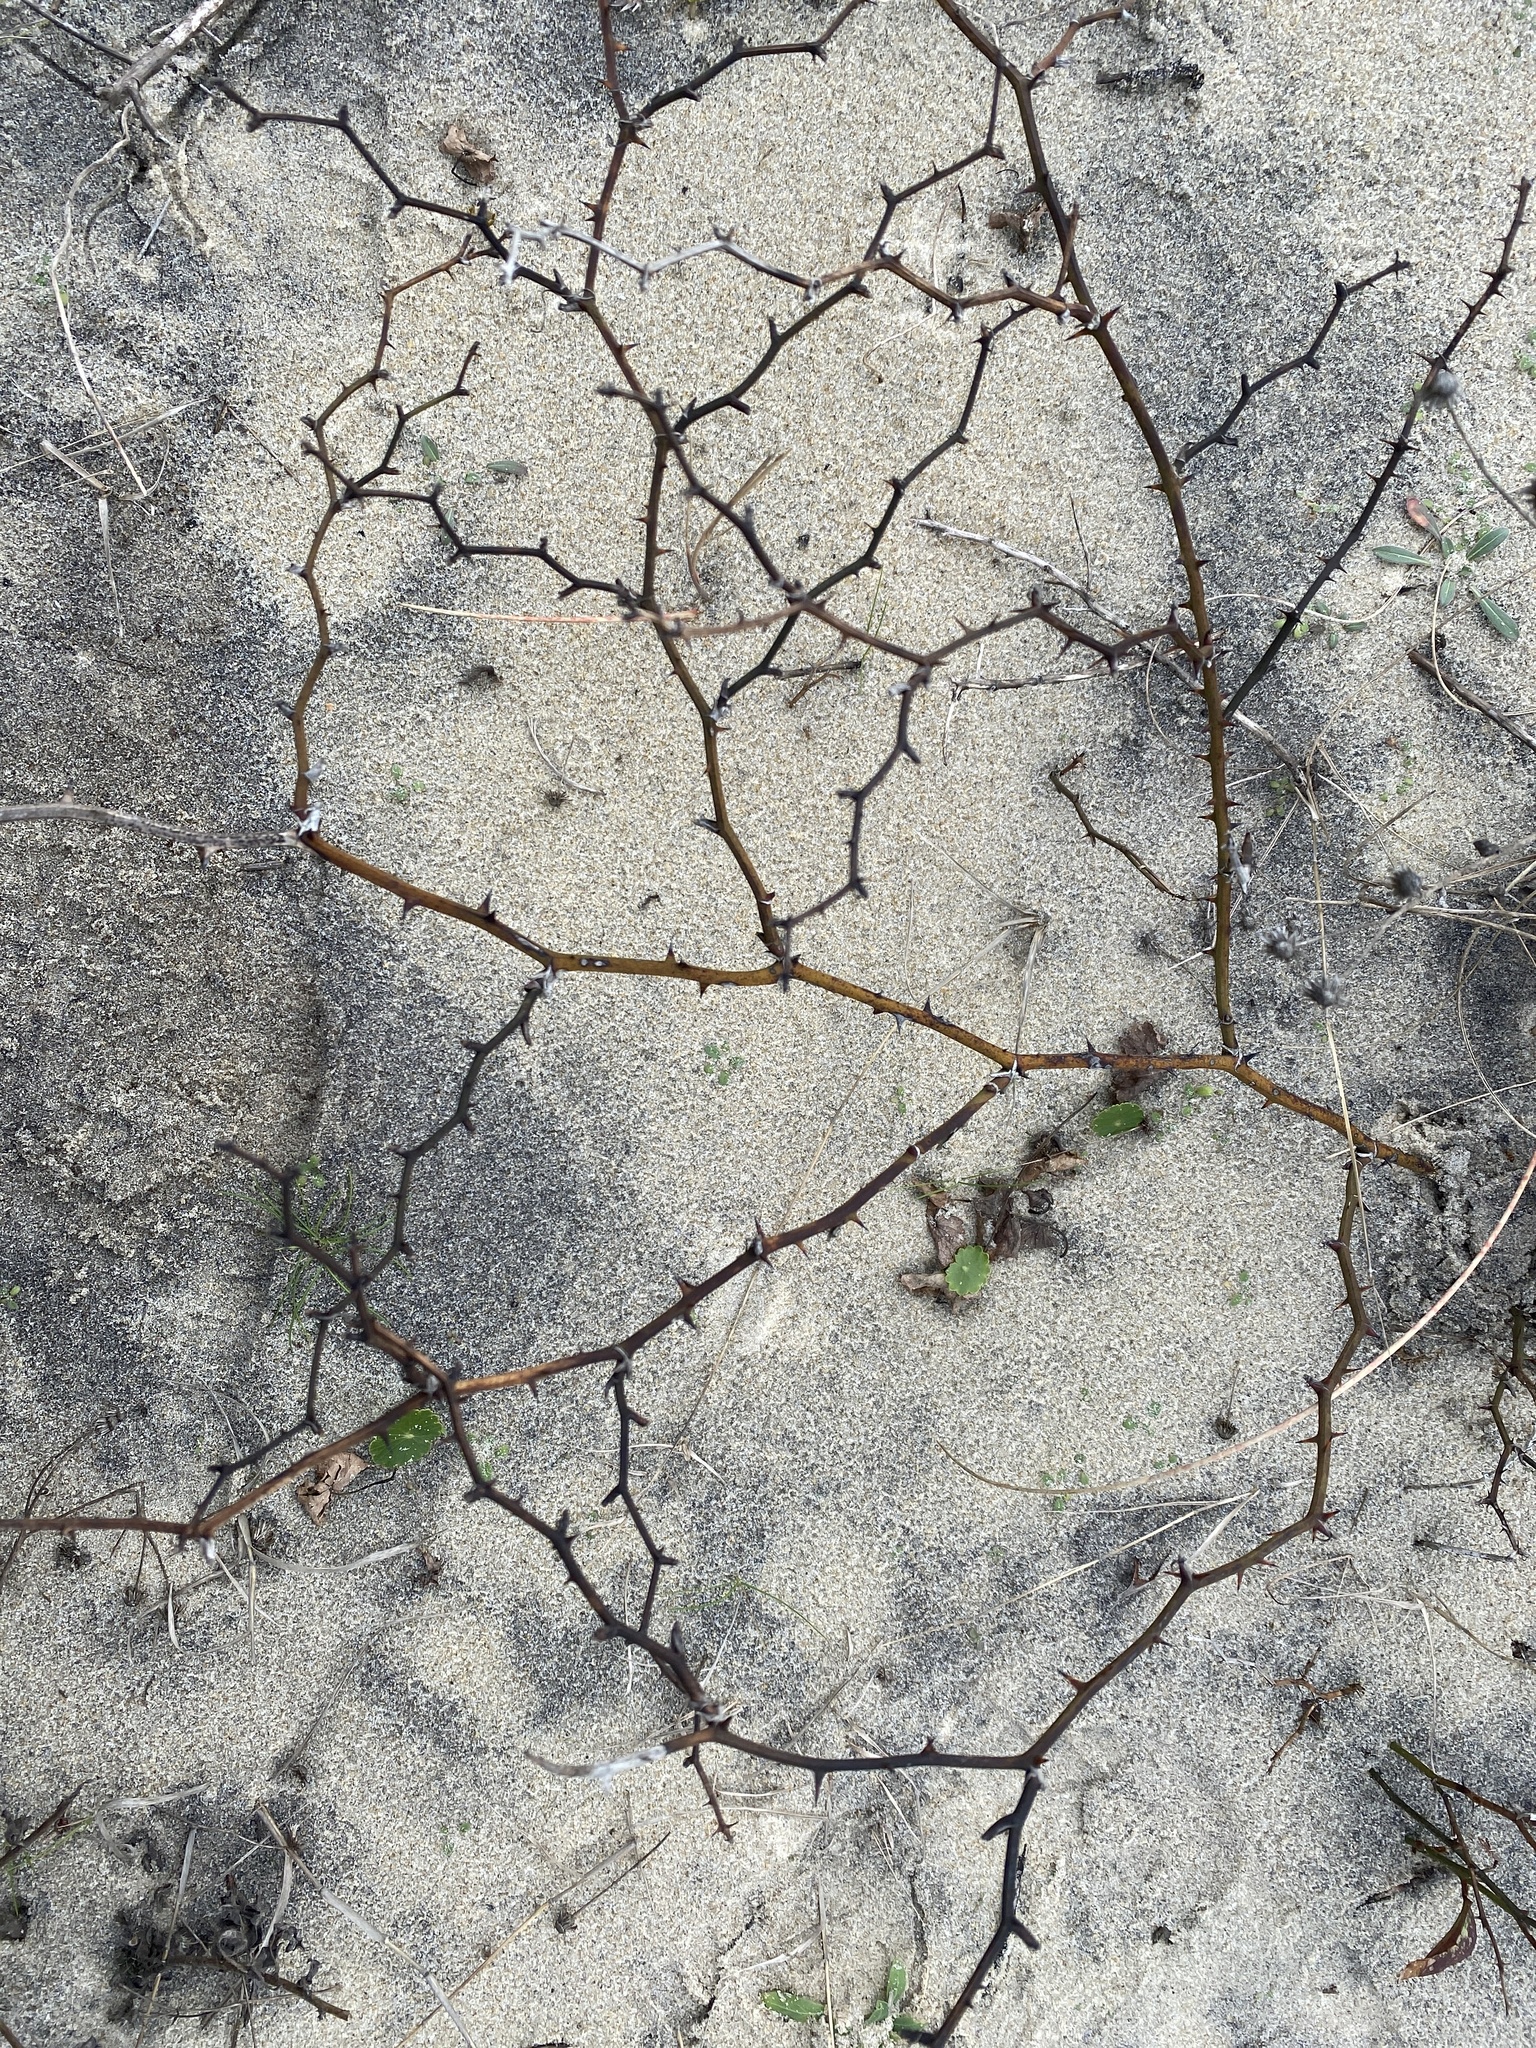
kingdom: Plantae
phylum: Tracheophyta
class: Liliopsida
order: Liliales
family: Smilacaceae
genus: Smilax
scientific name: Smilax bona-nox
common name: Catbrier
